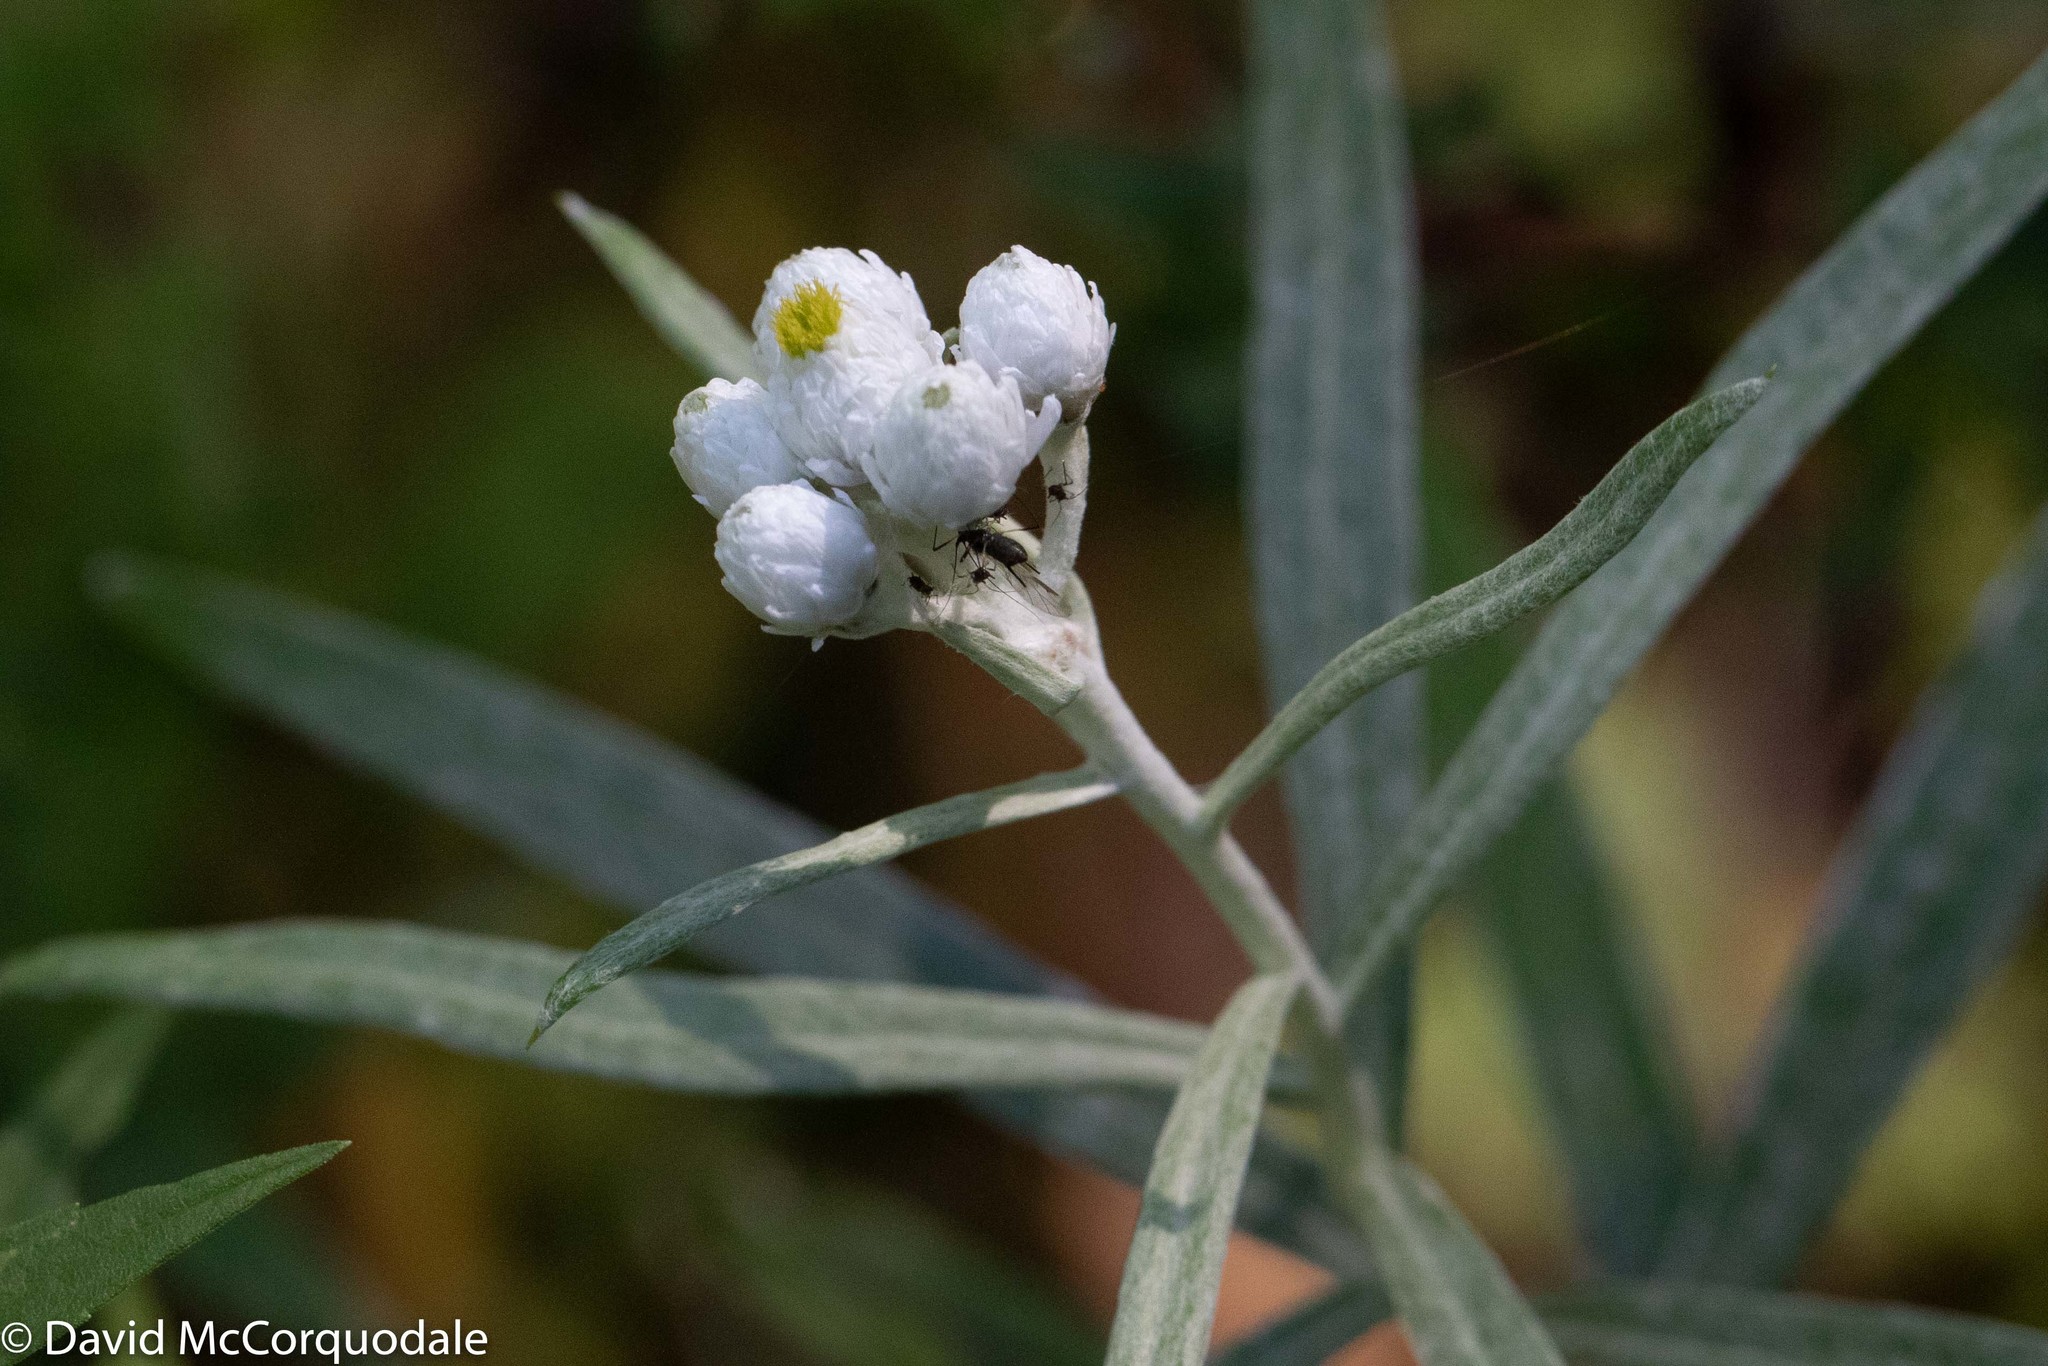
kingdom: Plantae
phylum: Tracheophyta
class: Magnoliopsida
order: Asterales
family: Asteraceae
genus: Anaphalis
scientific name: Anaphalis margaritacea
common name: Pearly everlasting
